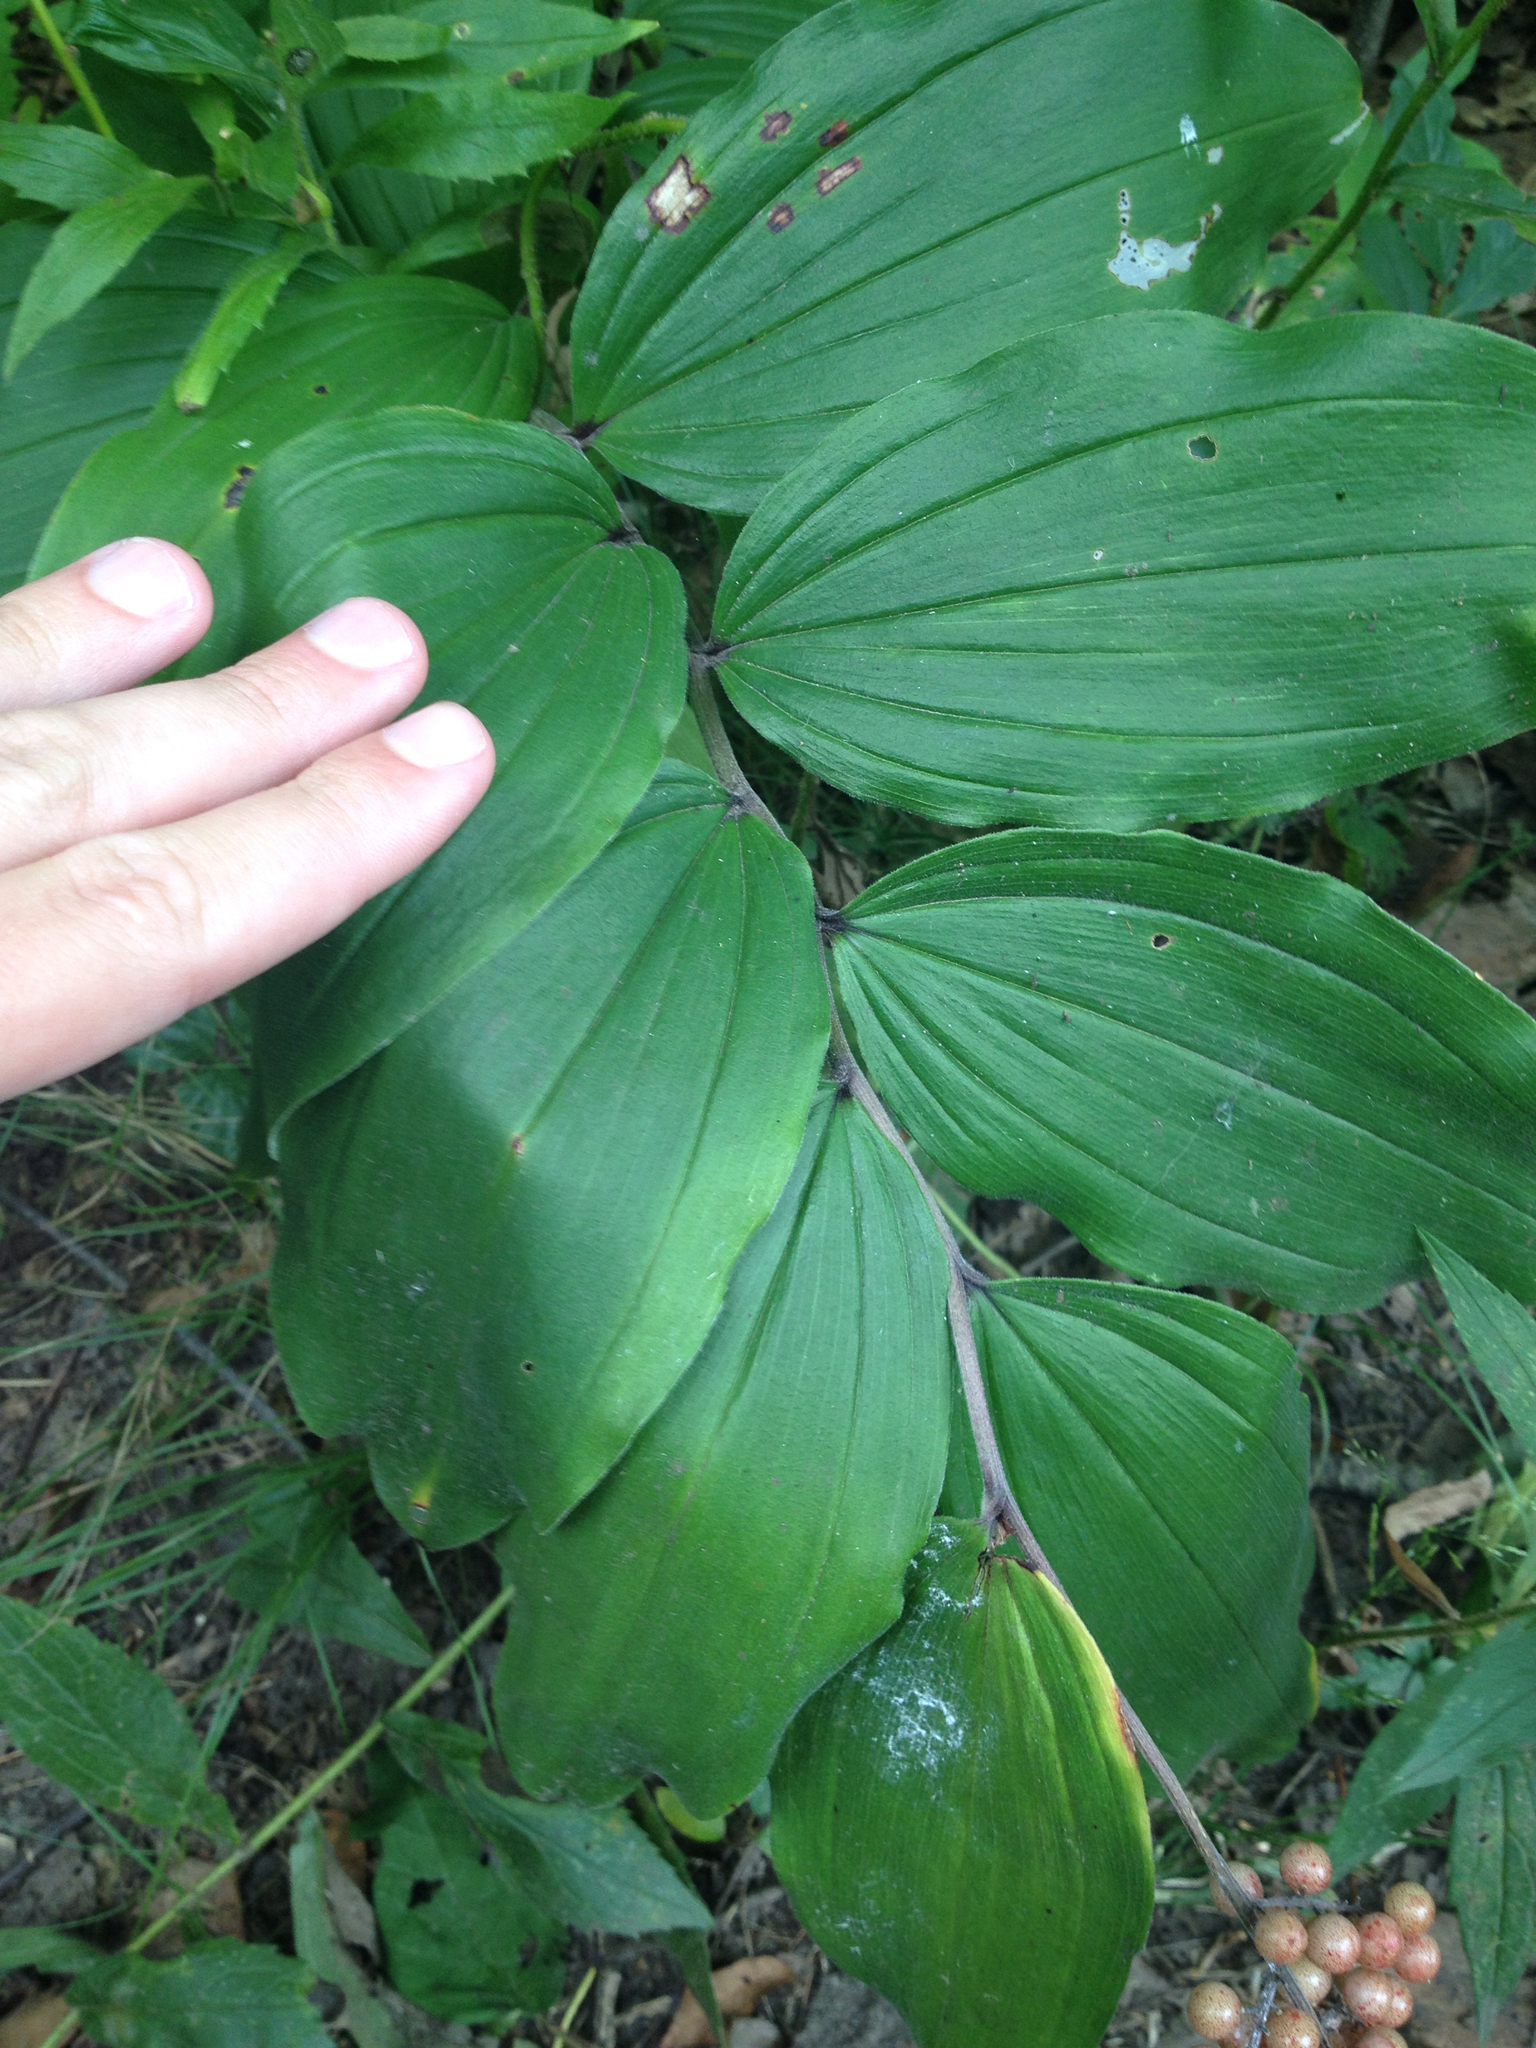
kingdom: Plantae
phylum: Tracheophyta
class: Liliopsida
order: Asparagales
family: Asparagaceae
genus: Maianthemum
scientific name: Maianthemum racemosum
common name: False spikenard
